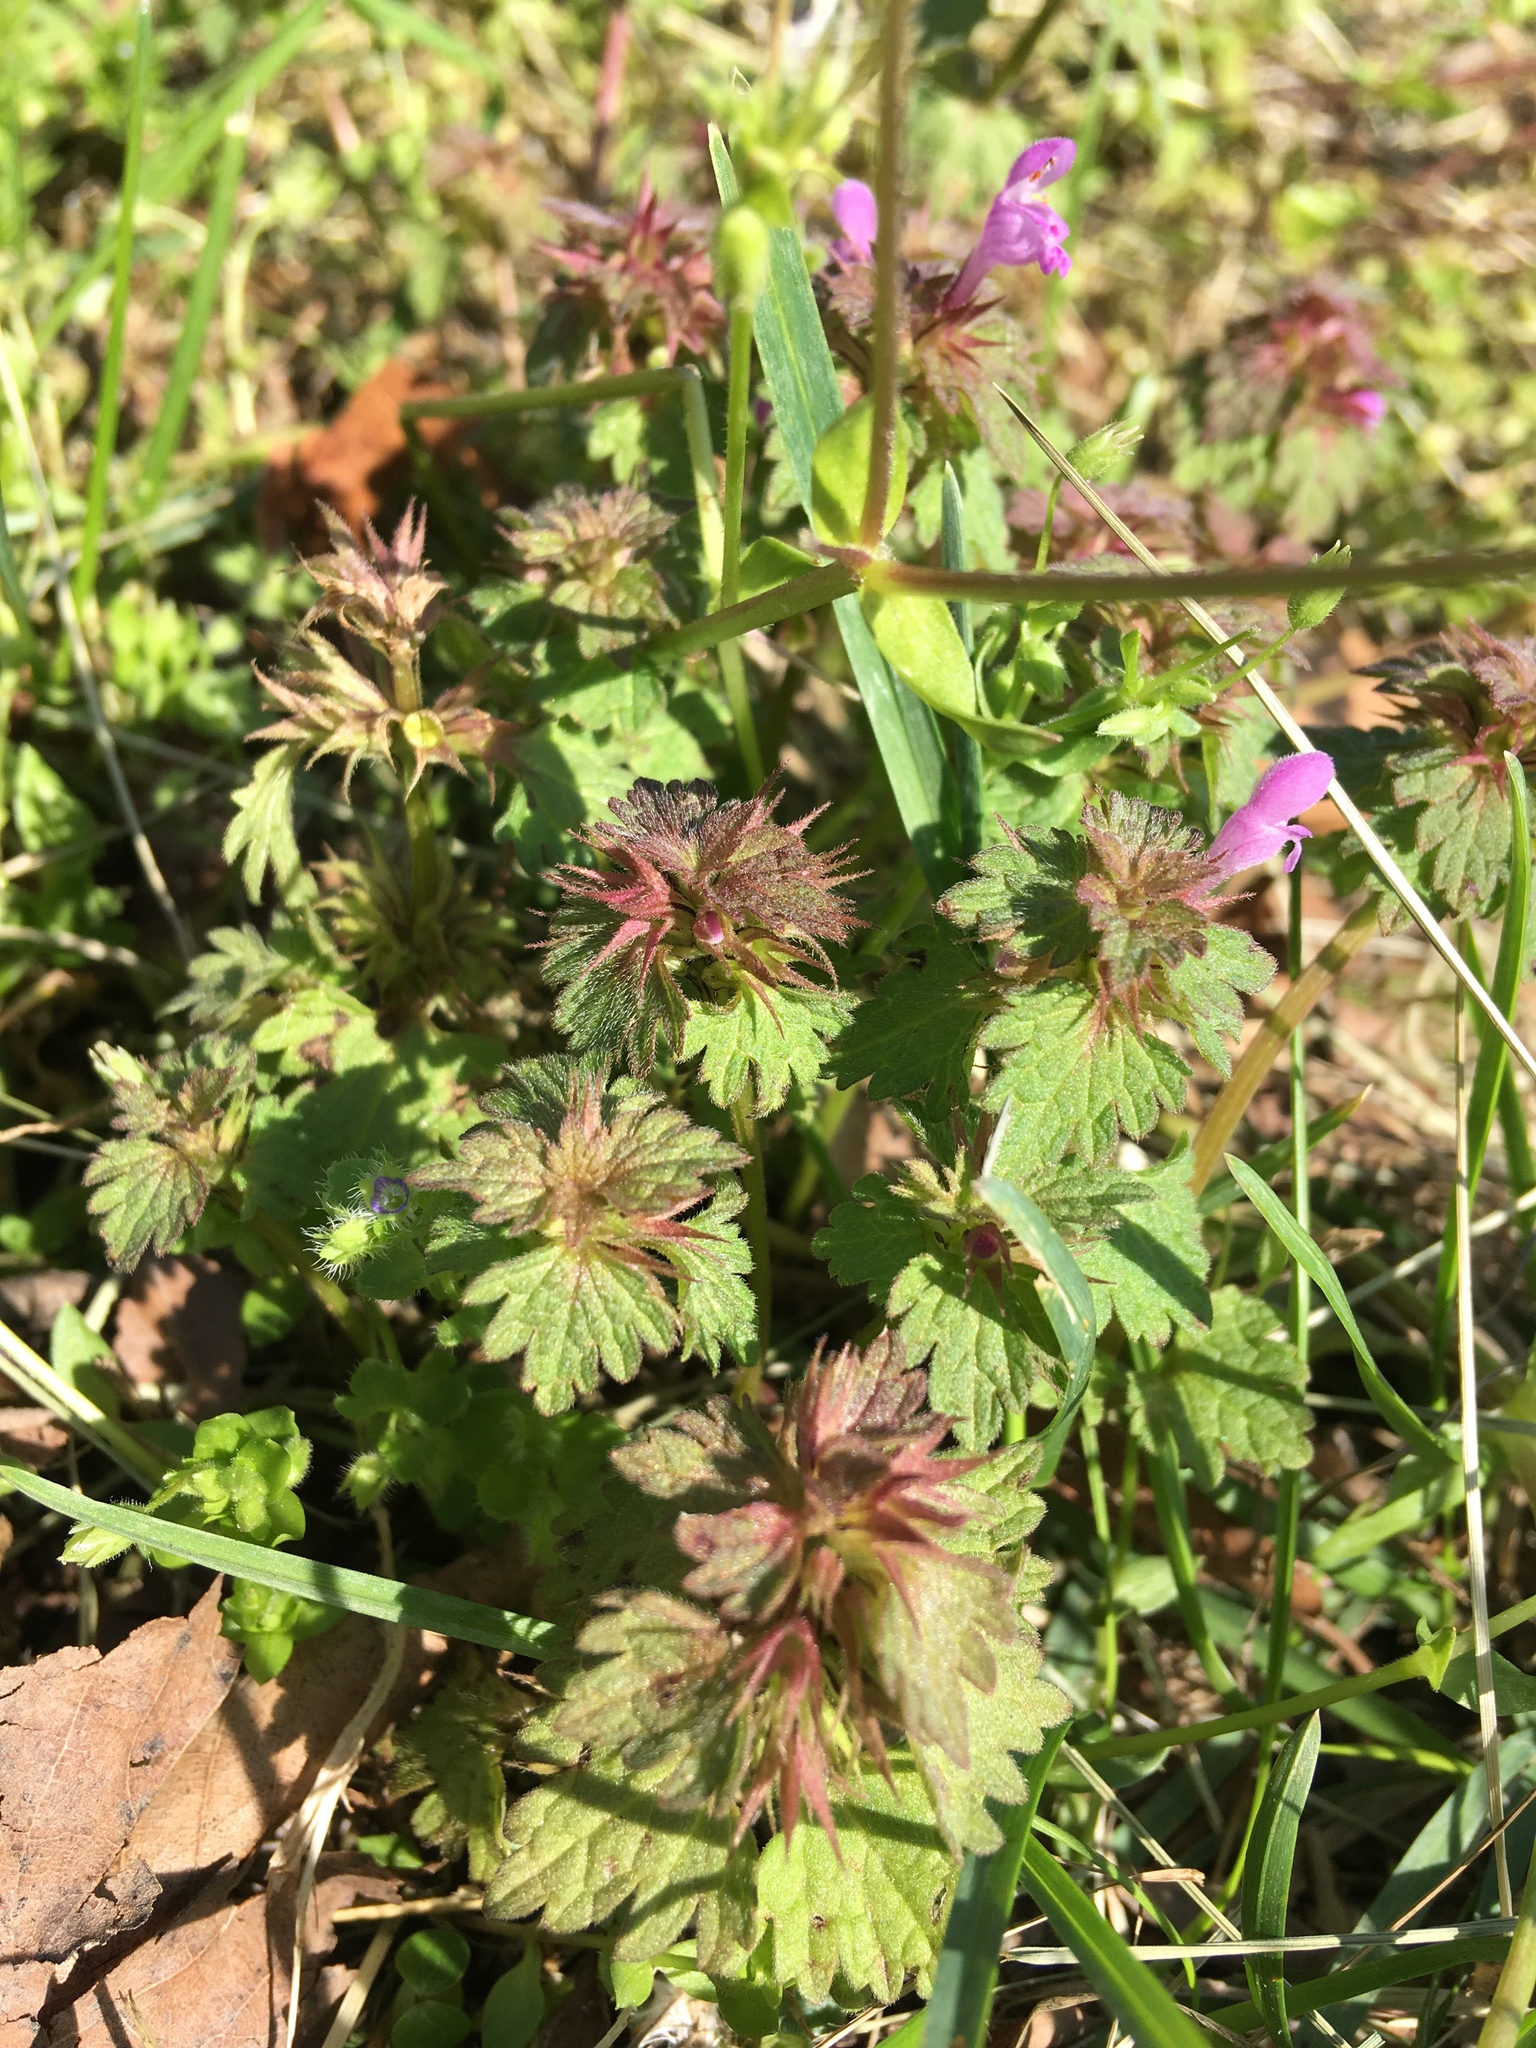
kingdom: Plantae
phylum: Tracheophyta
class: Magnoliopsida
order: Lamiales
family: Lamiaceae
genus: Lamium
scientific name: Lamium hybridum
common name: Cut-leaved dead-nettle
